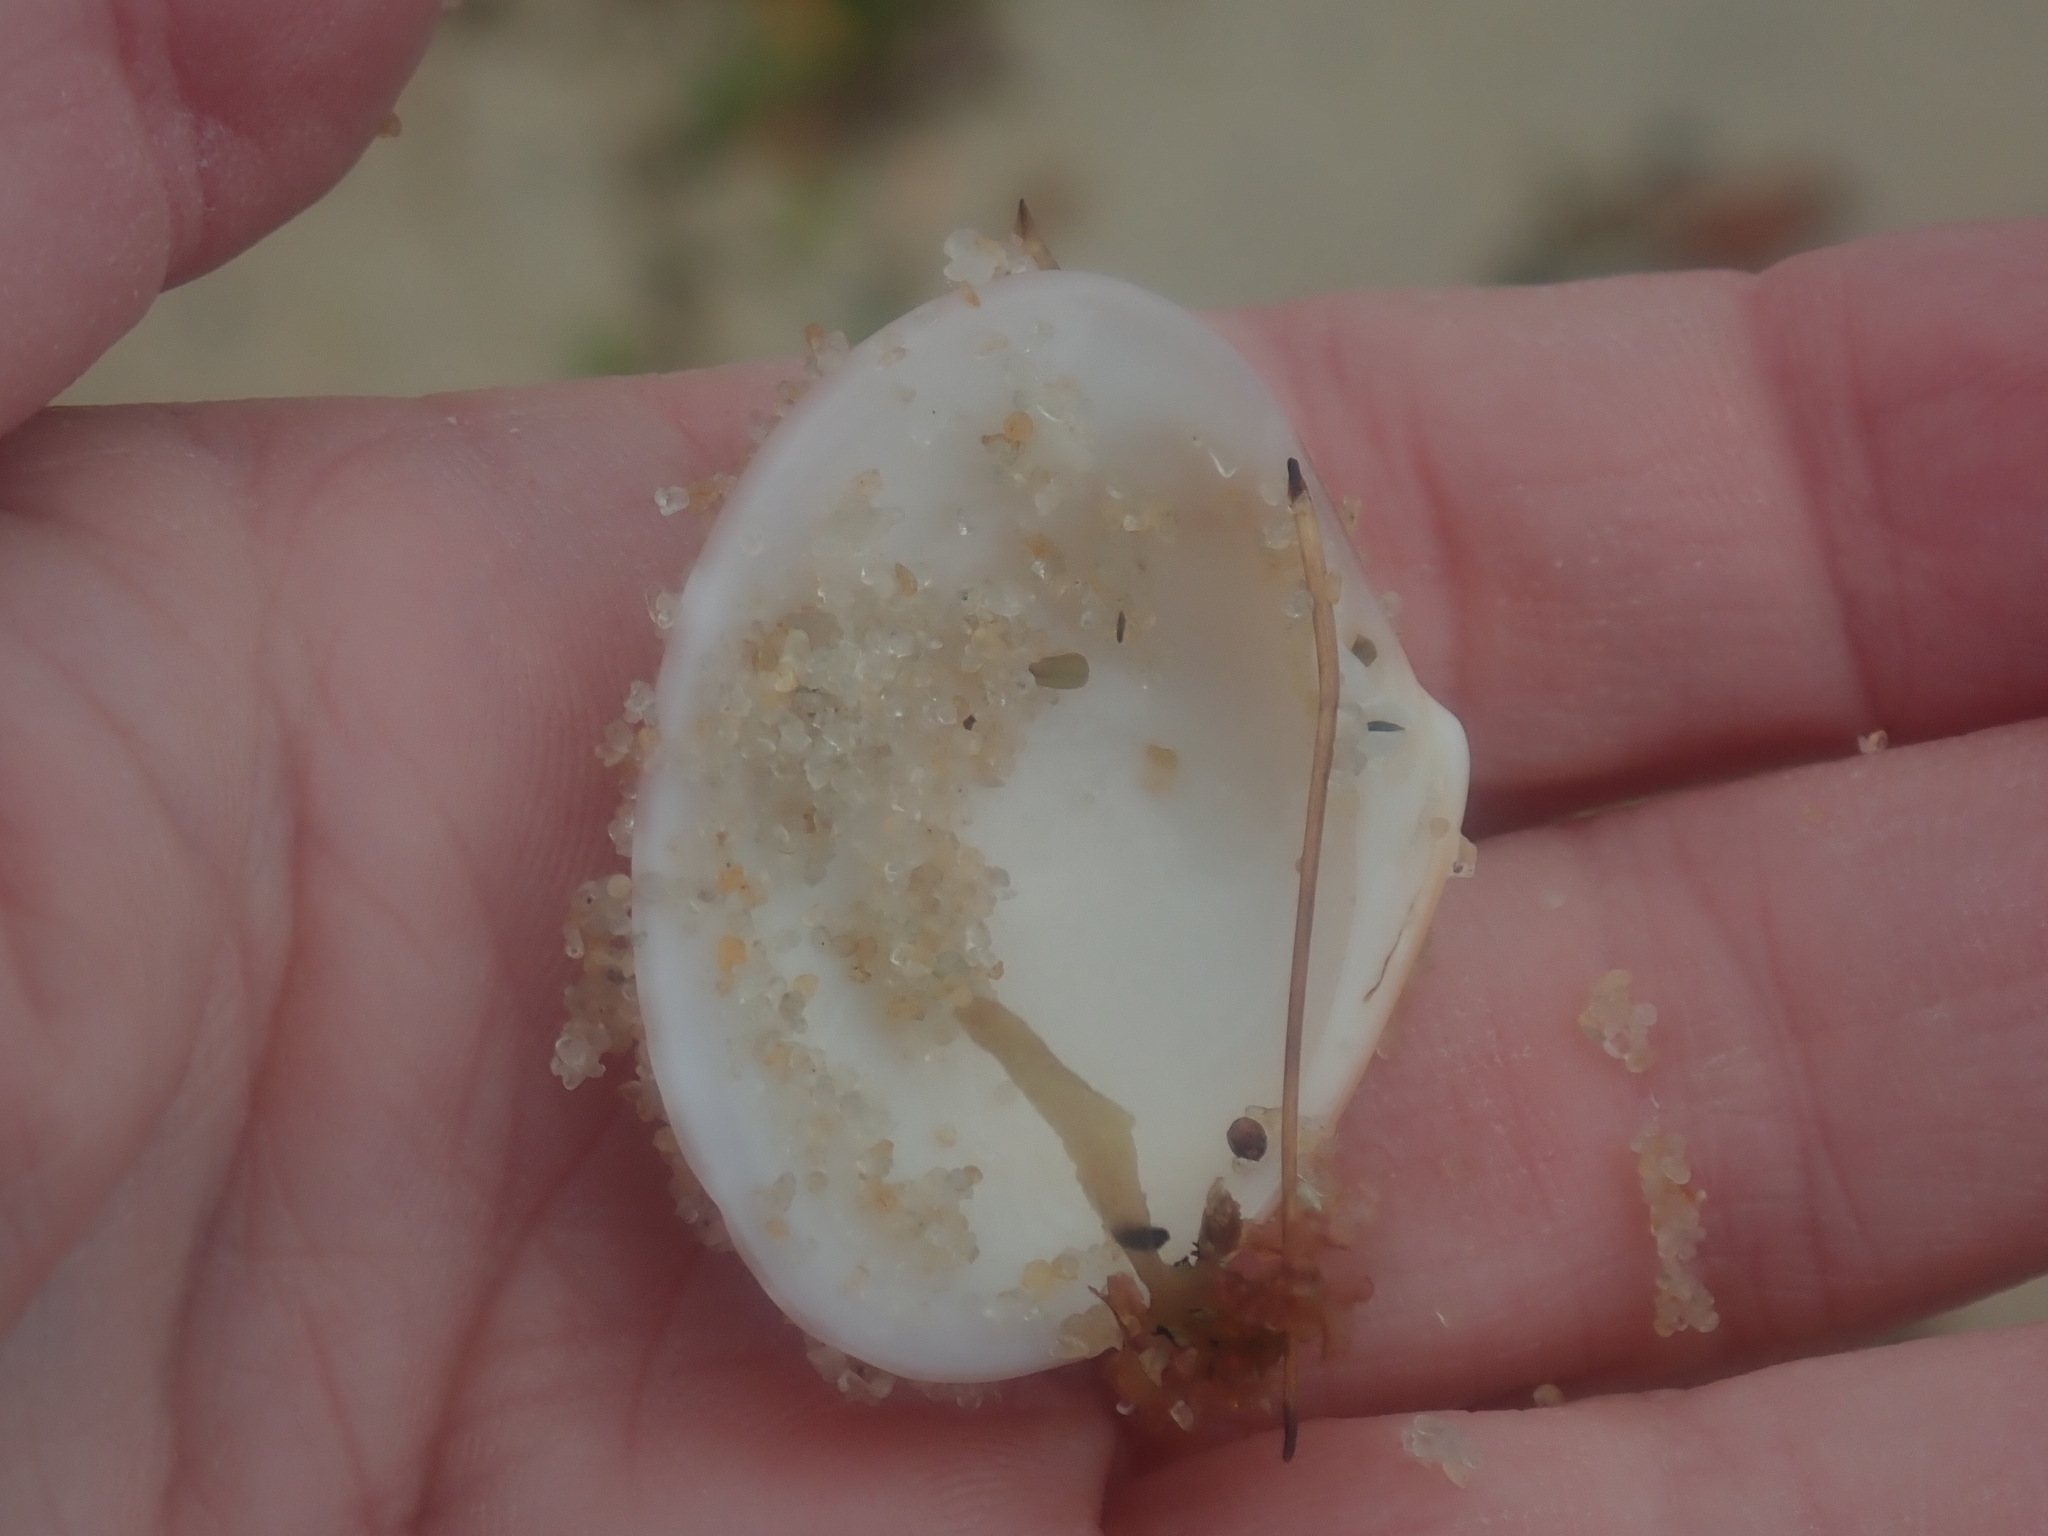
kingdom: Animalia
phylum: Mollusca
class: Bivalvia
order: Venerida
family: Veneridae
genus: Callista
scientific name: Callista kingii
